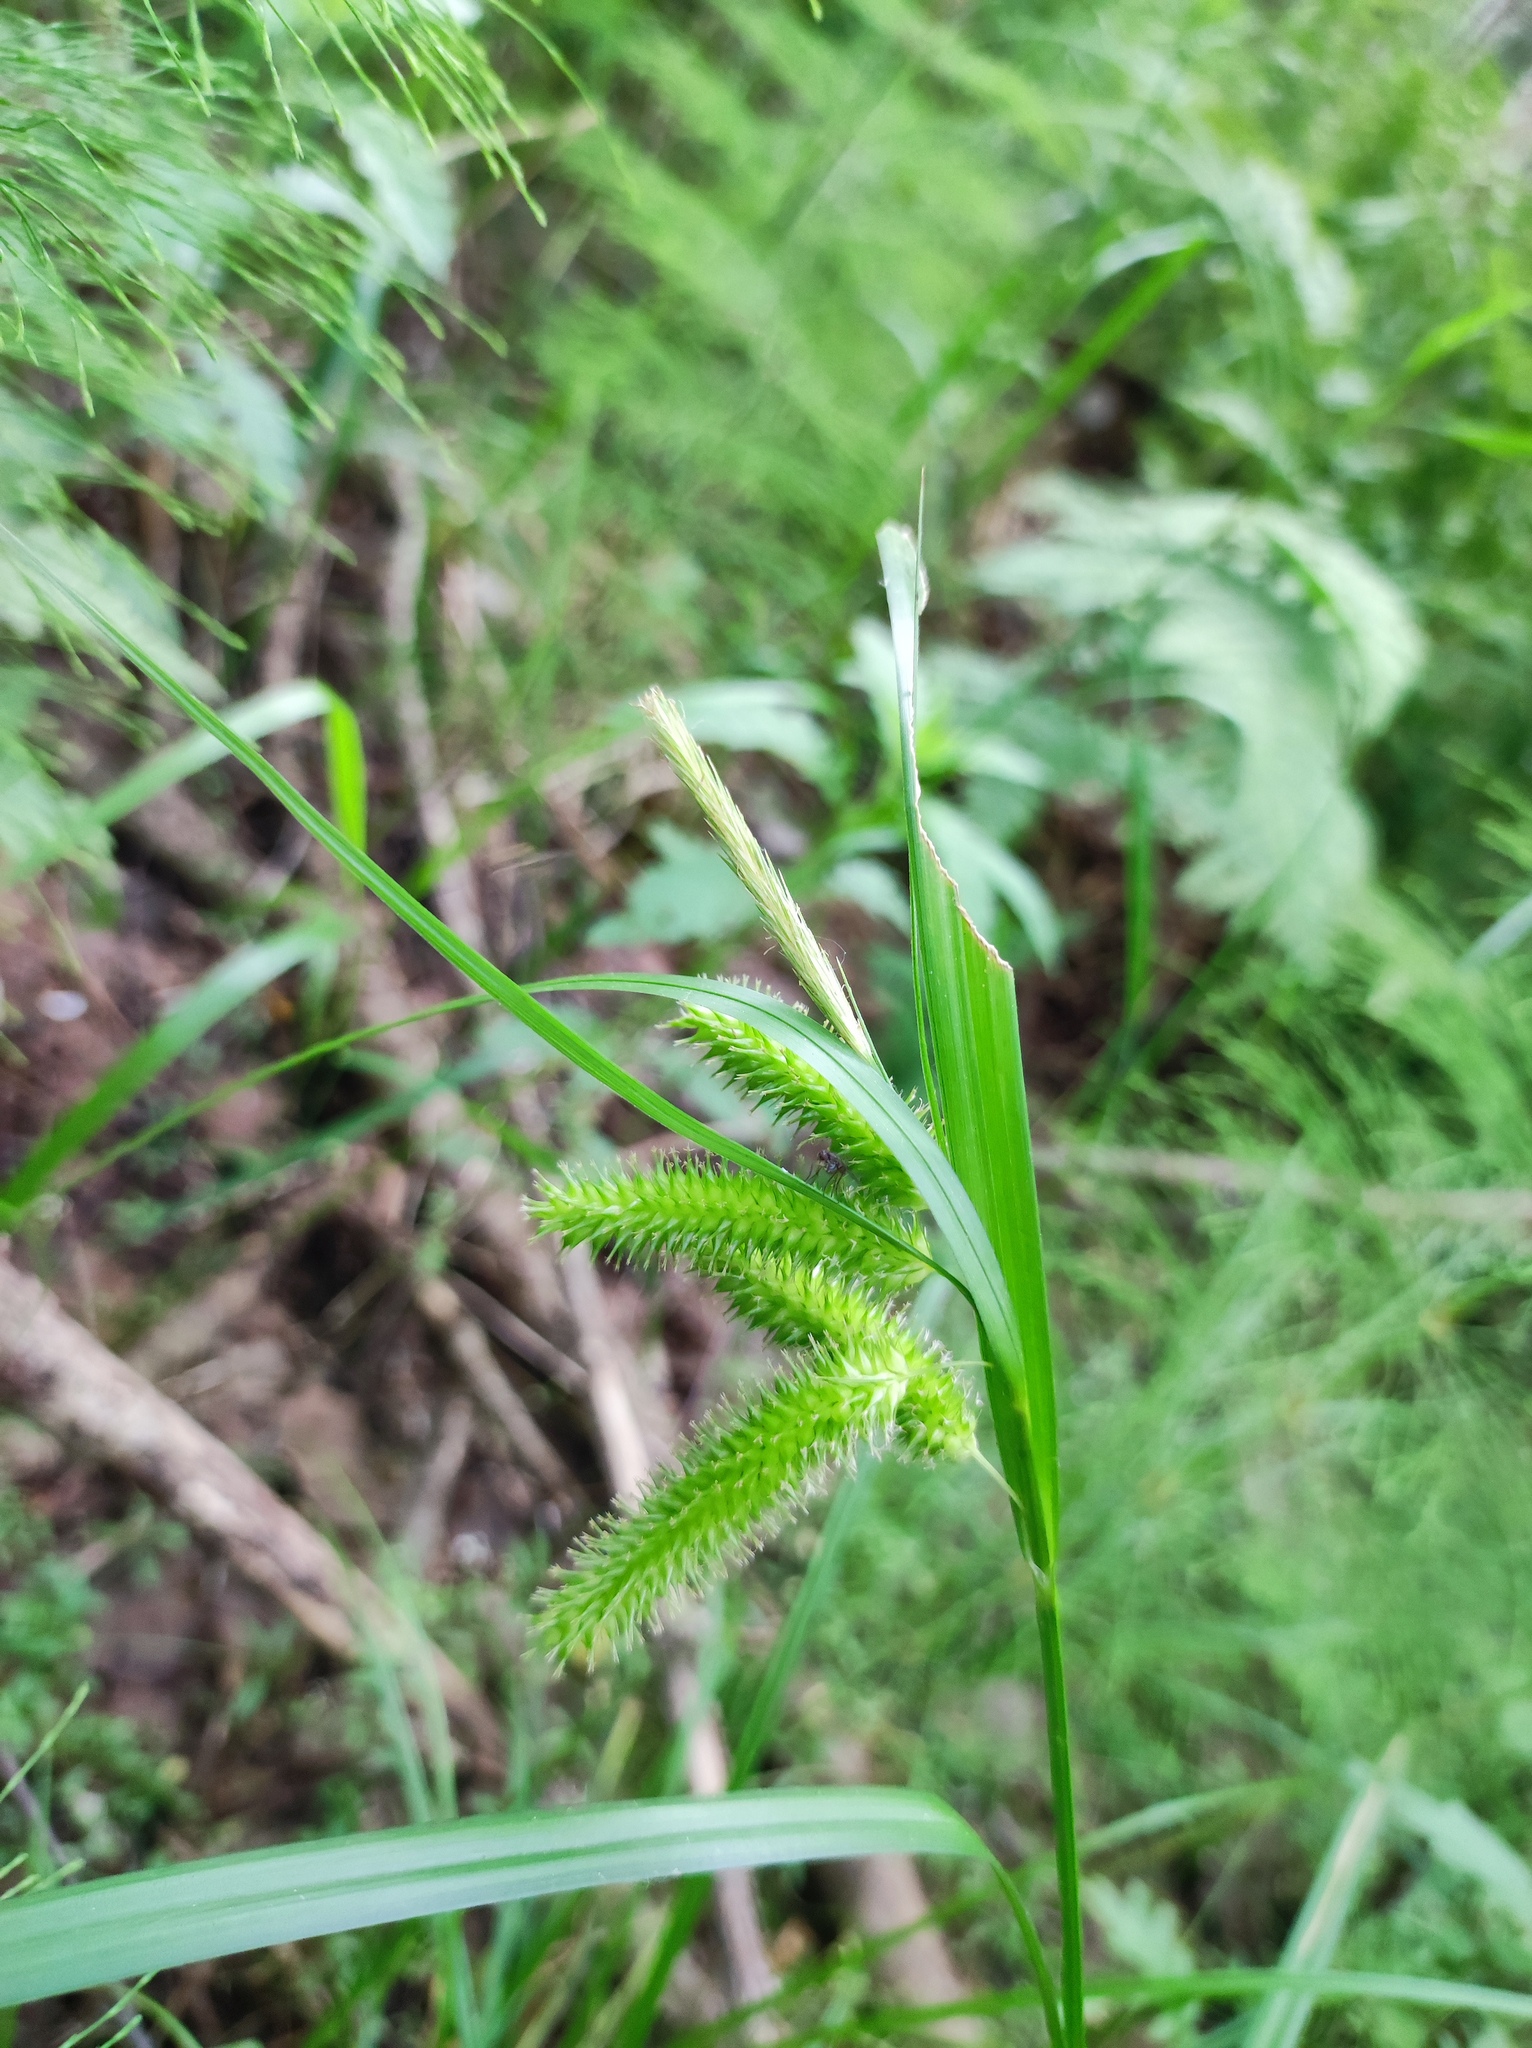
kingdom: Plantae
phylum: Tracheophyta
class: Liliopsida
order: Poales
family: Cyperaceae
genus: Carex
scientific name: Carex pseudocyperus
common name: Cyperus sedge
